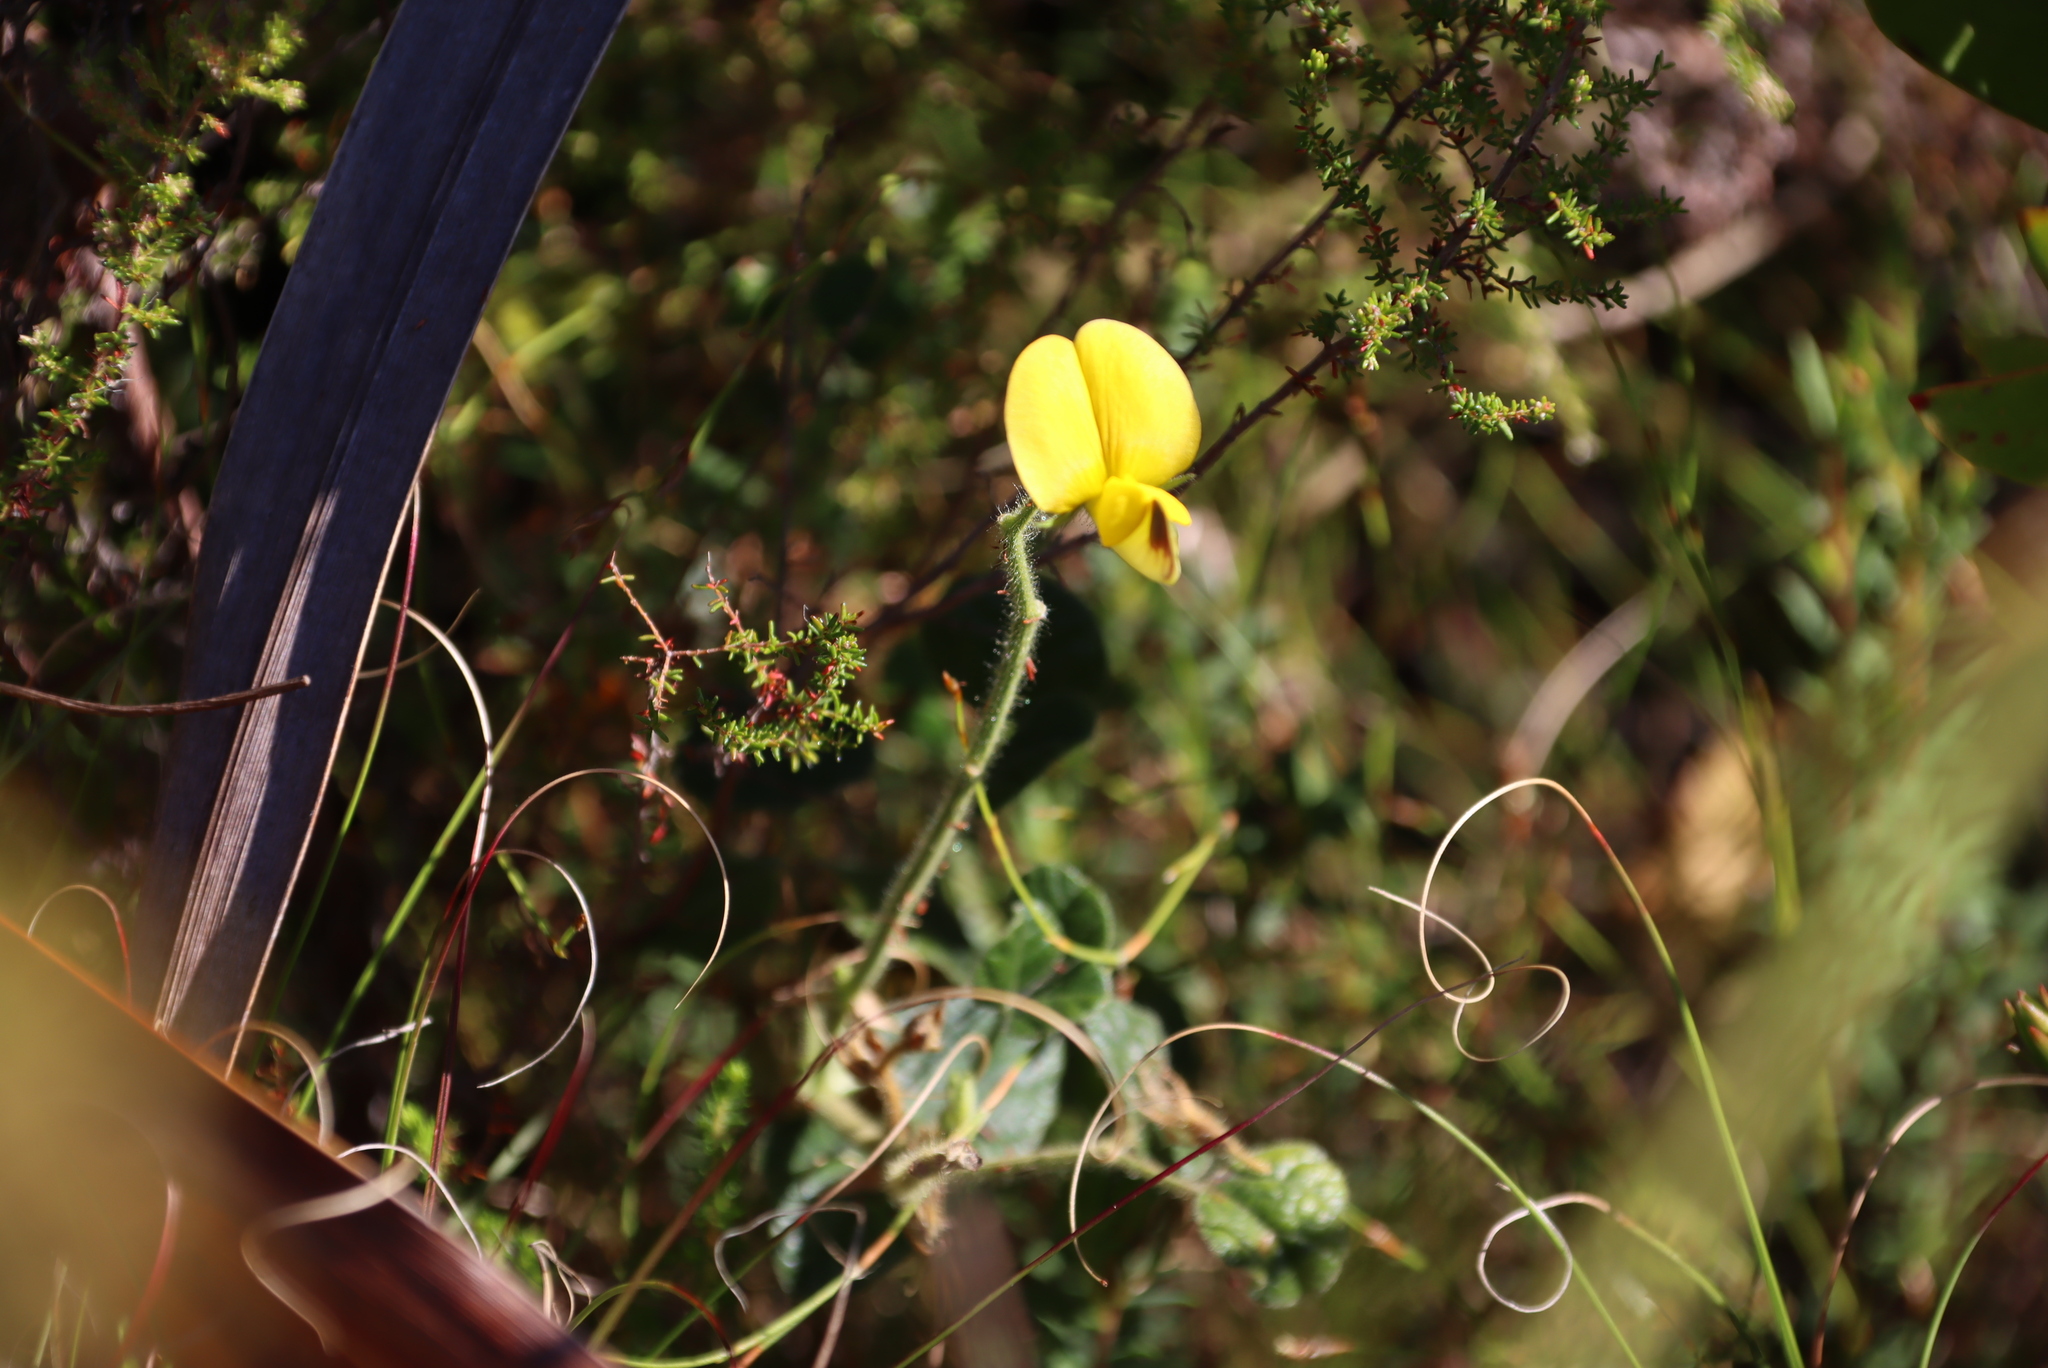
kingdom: Plantae
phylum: Tracheophyta
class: Magnoliopsida
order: Fabales
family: Fabaceae
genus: Bolusafra
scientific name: Bolusafra bituminosa
